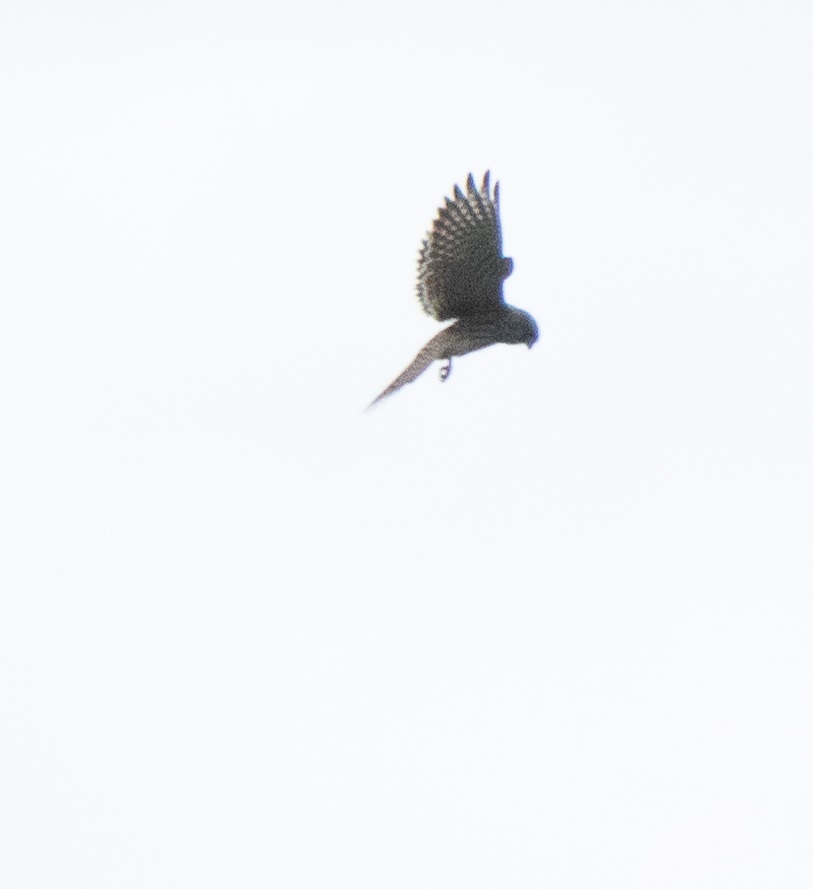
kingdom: Animalia
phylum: Chordata
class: Aves
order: Falconiformes
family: Falconidae
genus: Falco
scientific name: Falco tinnunculus
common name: Common kestrel
